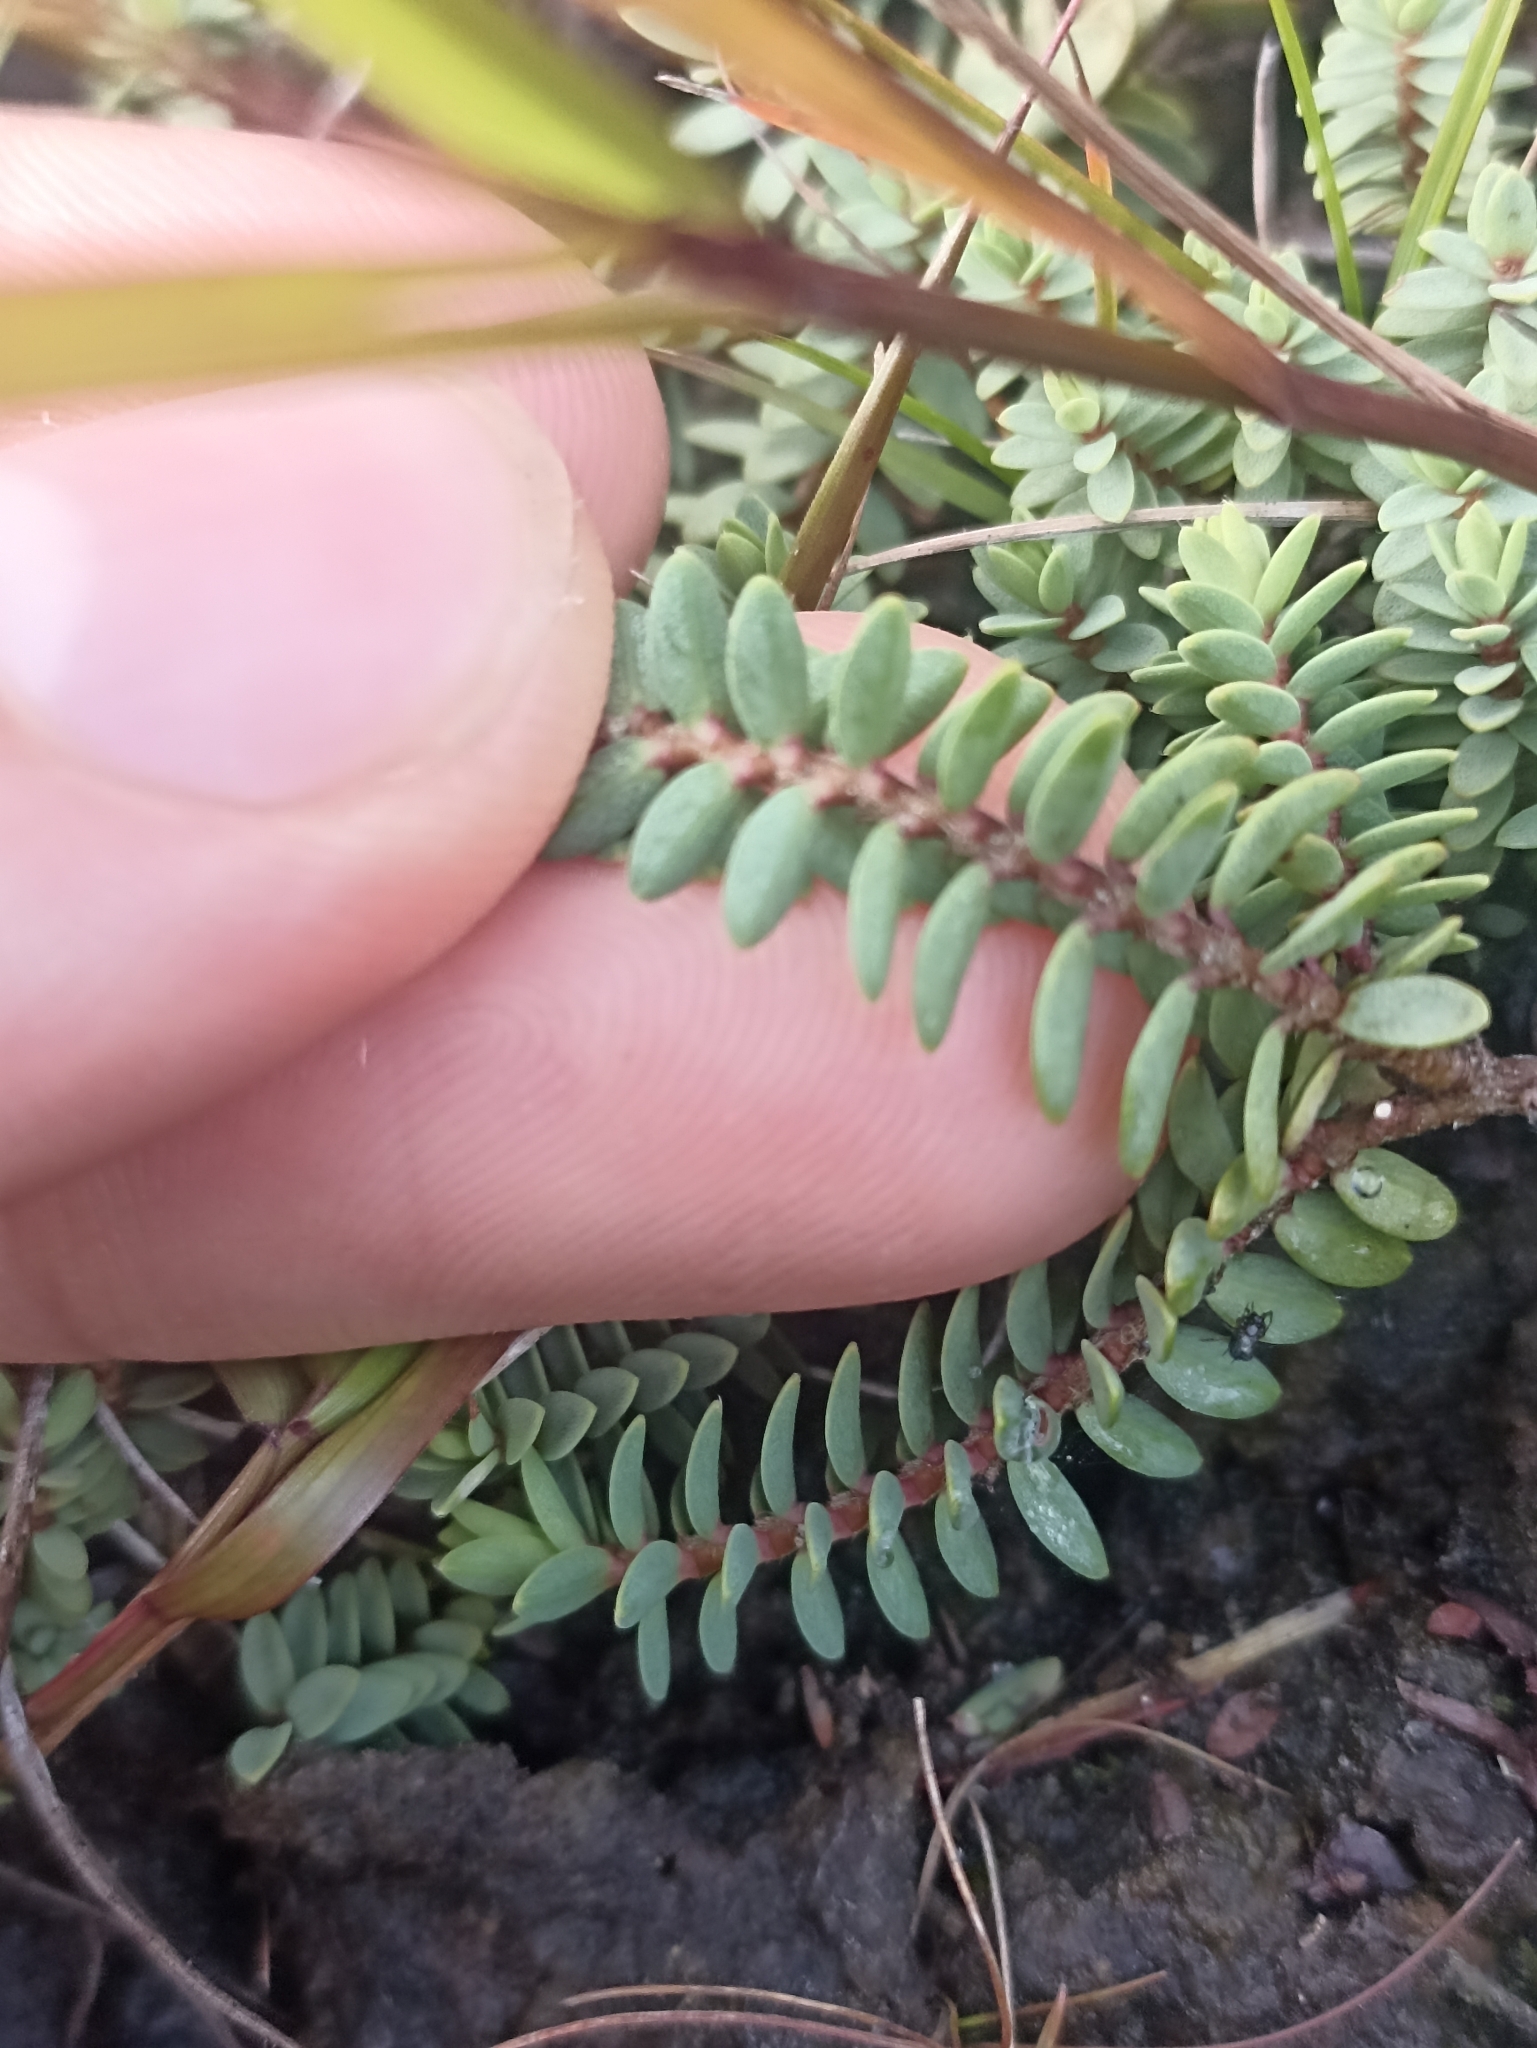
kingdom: Plantae
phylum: Tracheophyta
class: Magnoliopsida
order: Malvales
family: Thymelaeaceae
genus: Pimelea
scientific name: Pimelea prostrata
